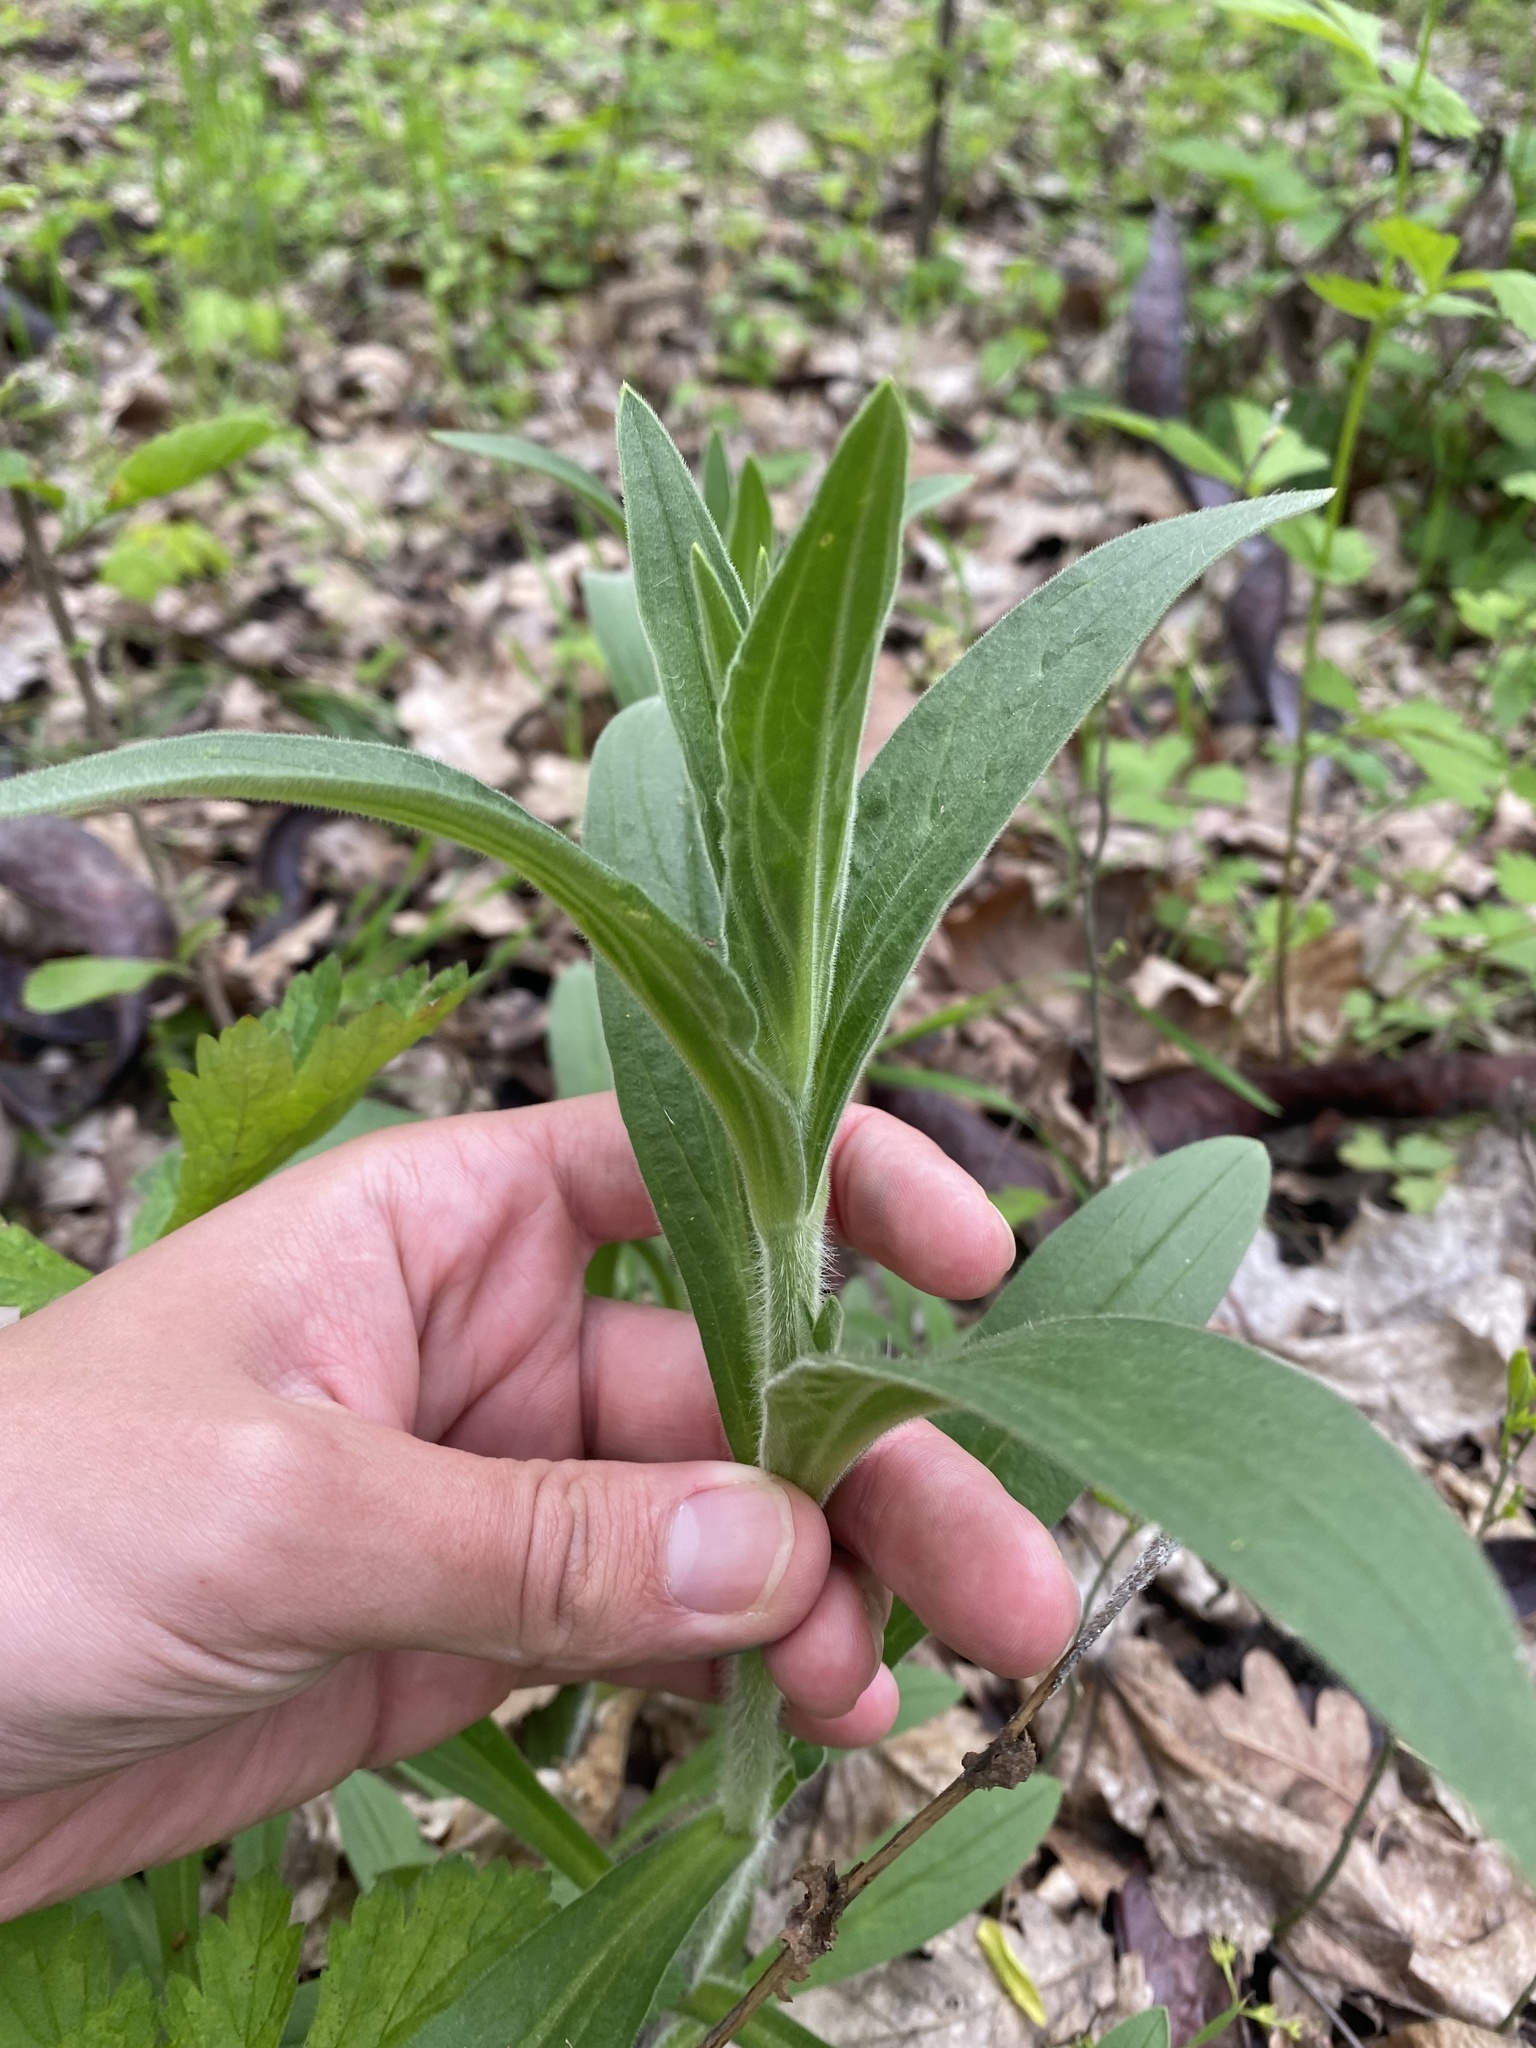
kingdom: Plantae
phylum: Tracheophyta
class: Magnoliopsida
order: Caryophyllales
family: Caryophyllaceae
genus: Silene
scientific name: Silene latifolia
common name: White campion
